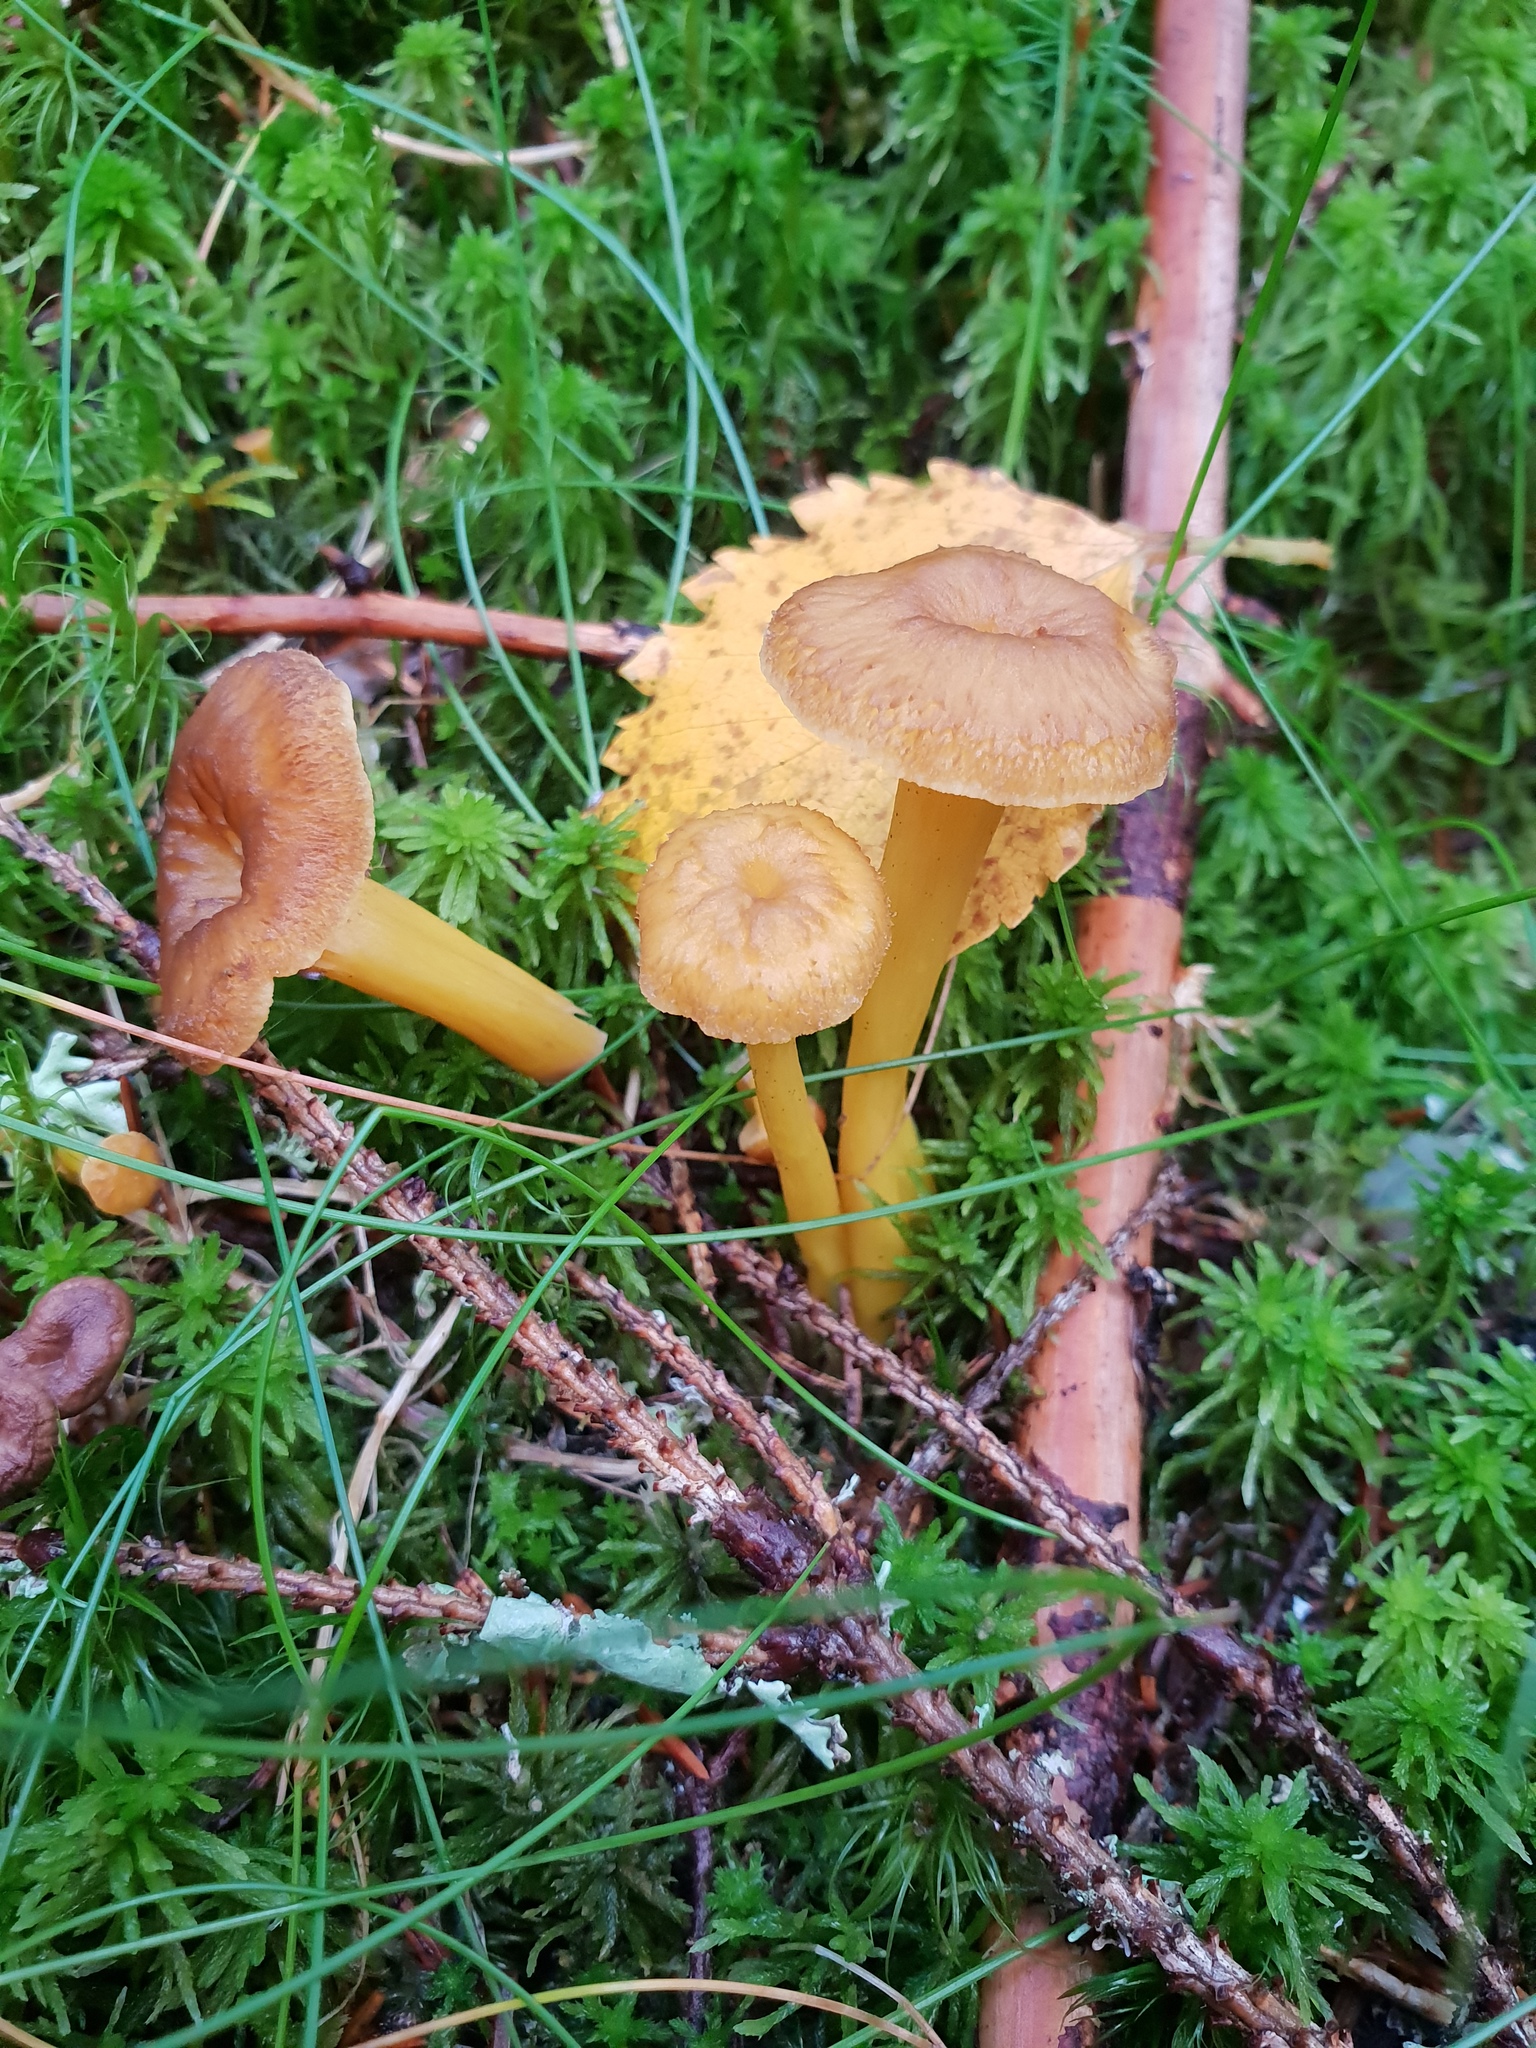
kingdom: Fungi
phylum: Basidiomycota
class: Agaricomycetes
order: Cantharellales
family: Hydnaceae
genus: Craterellus
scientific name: Craterellus tubaeformis
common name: Yellowfoot
